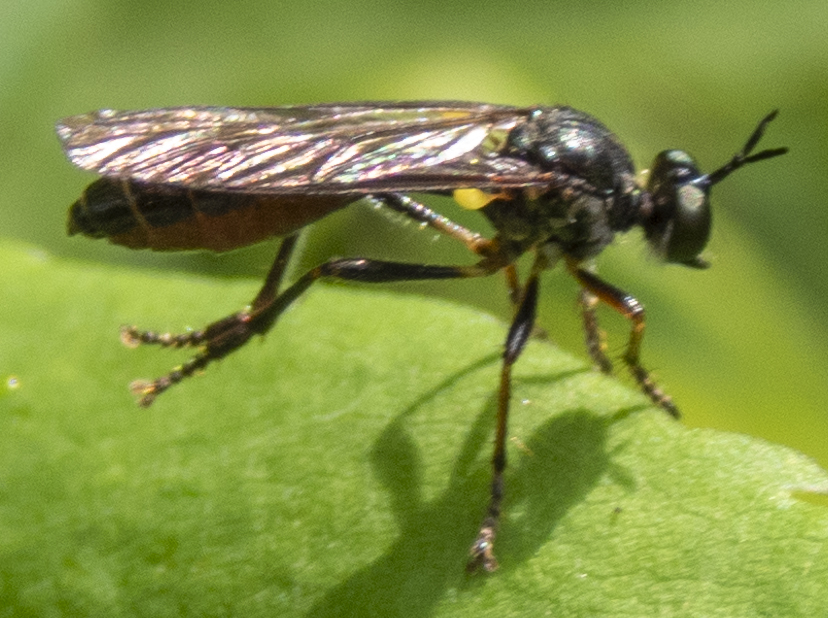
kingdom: Animalia
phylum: Arthropoda
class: Insecta
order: Diptera
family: Asilidae
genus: Dioctria
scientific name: Dioctria hyalipennis
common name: Stripe-legged robberfly
